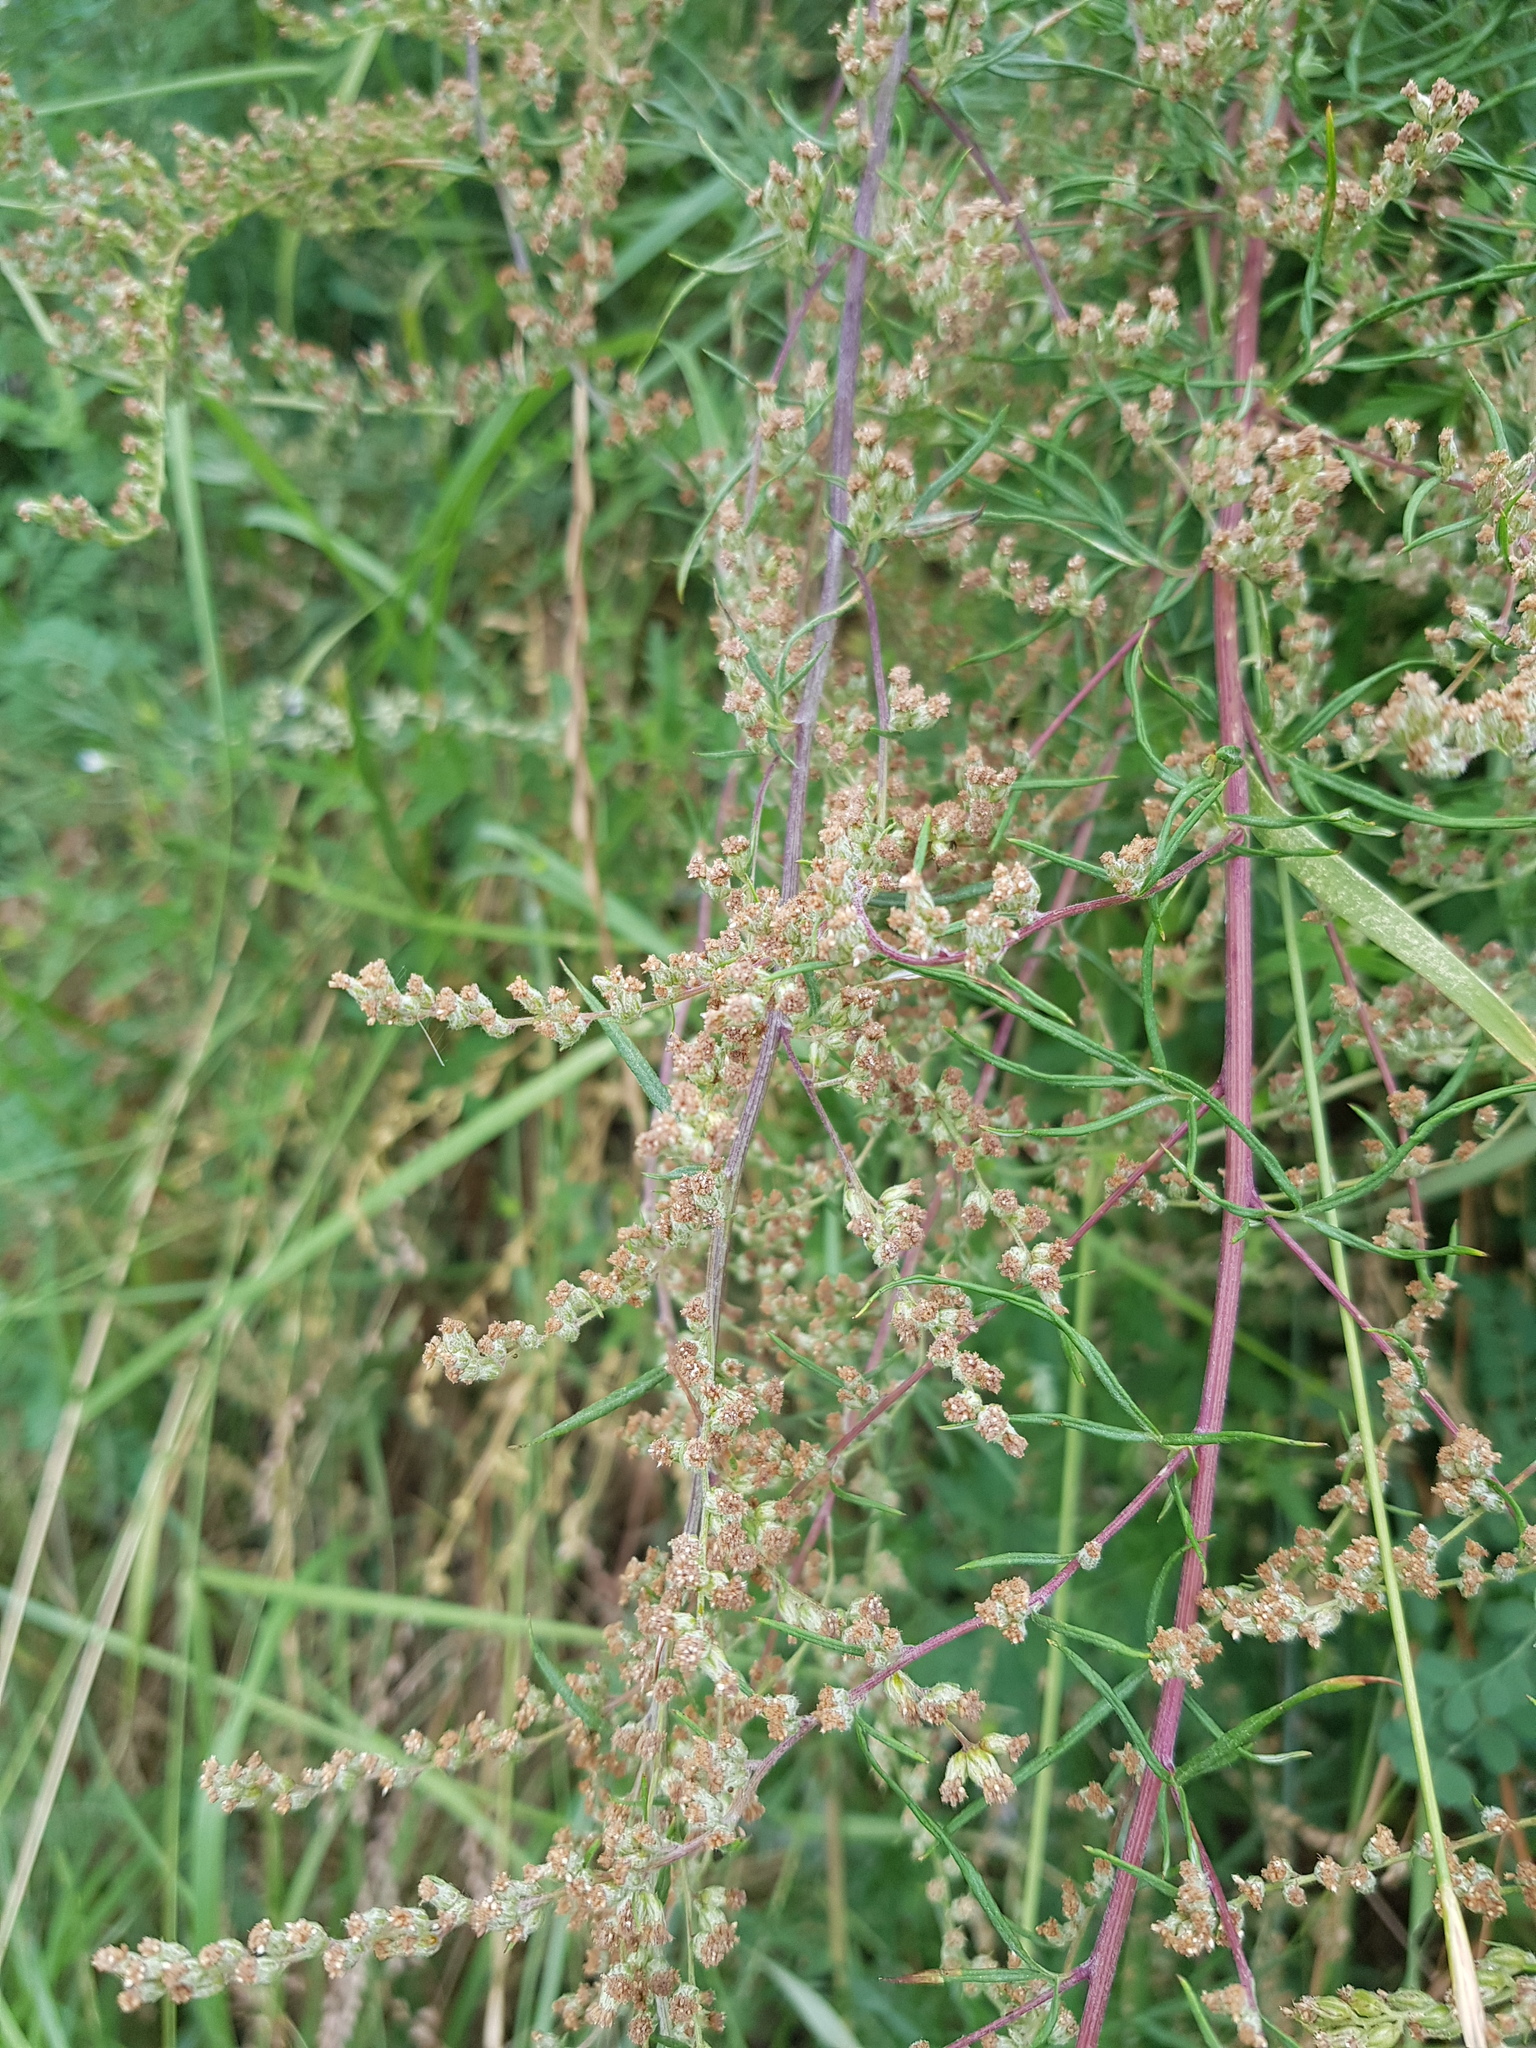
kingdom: Plantae
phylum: Tracheophyta
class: Magnoliopsida
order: Asterales
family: Asteraceae
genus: Artemisia
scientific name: Artemisia pubescens
